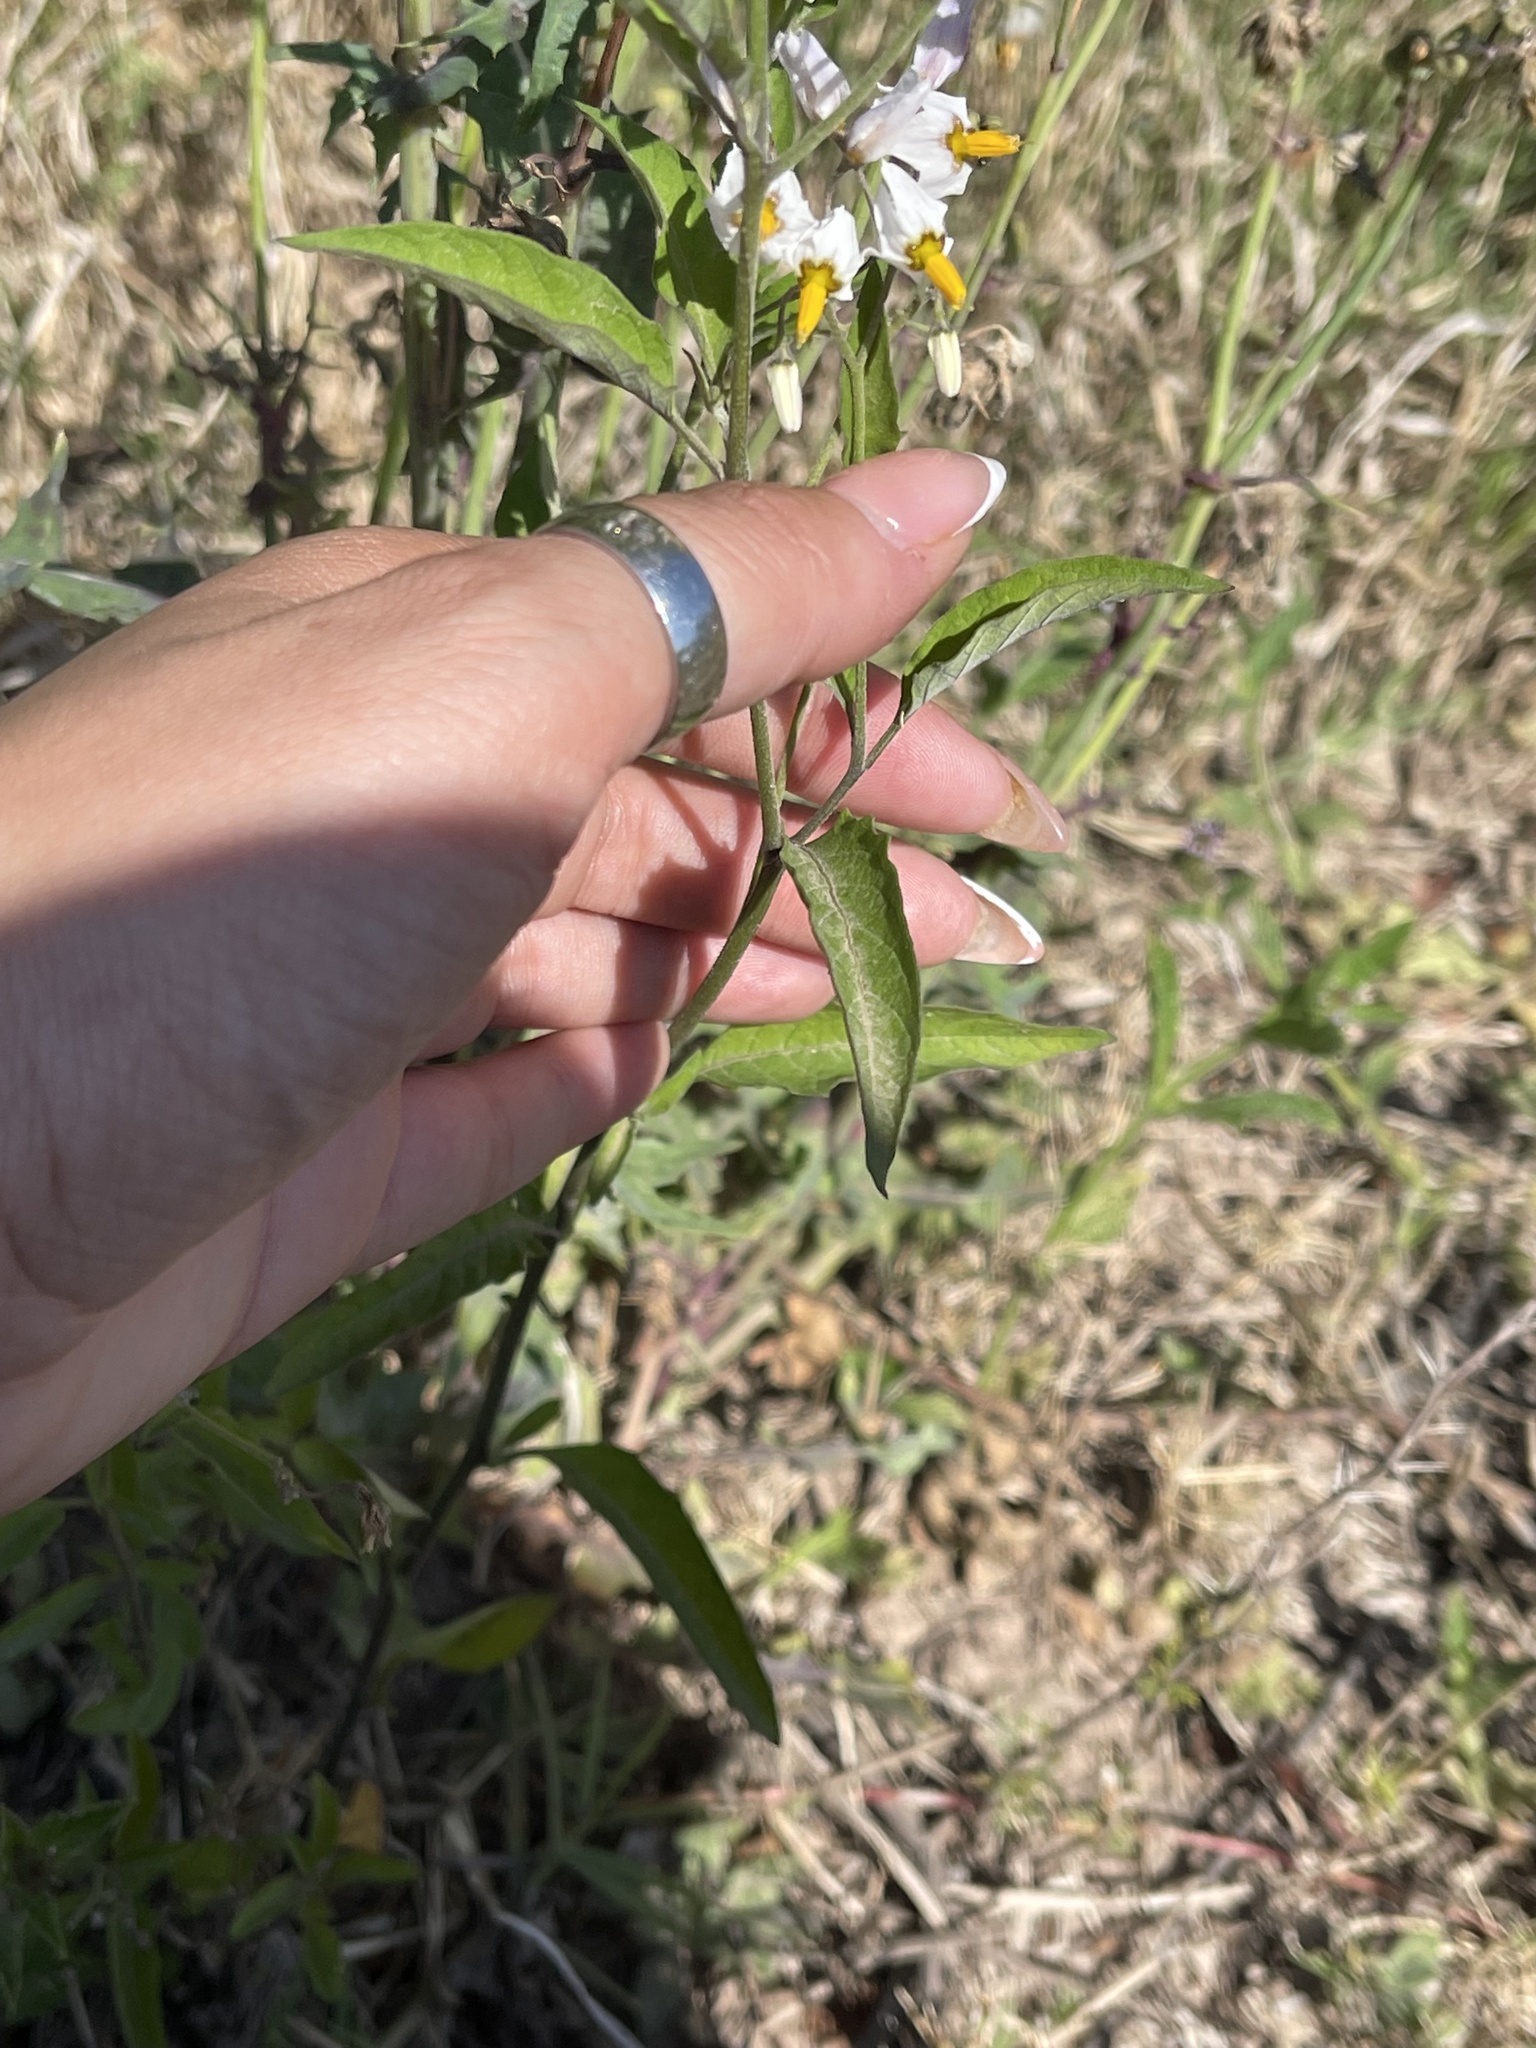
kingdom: Plantae
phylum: Tracheophyta
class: Magnoliopsida
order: Solanales
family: Solanaceae
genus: Solanum
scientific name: Solanum aloysiifolium
